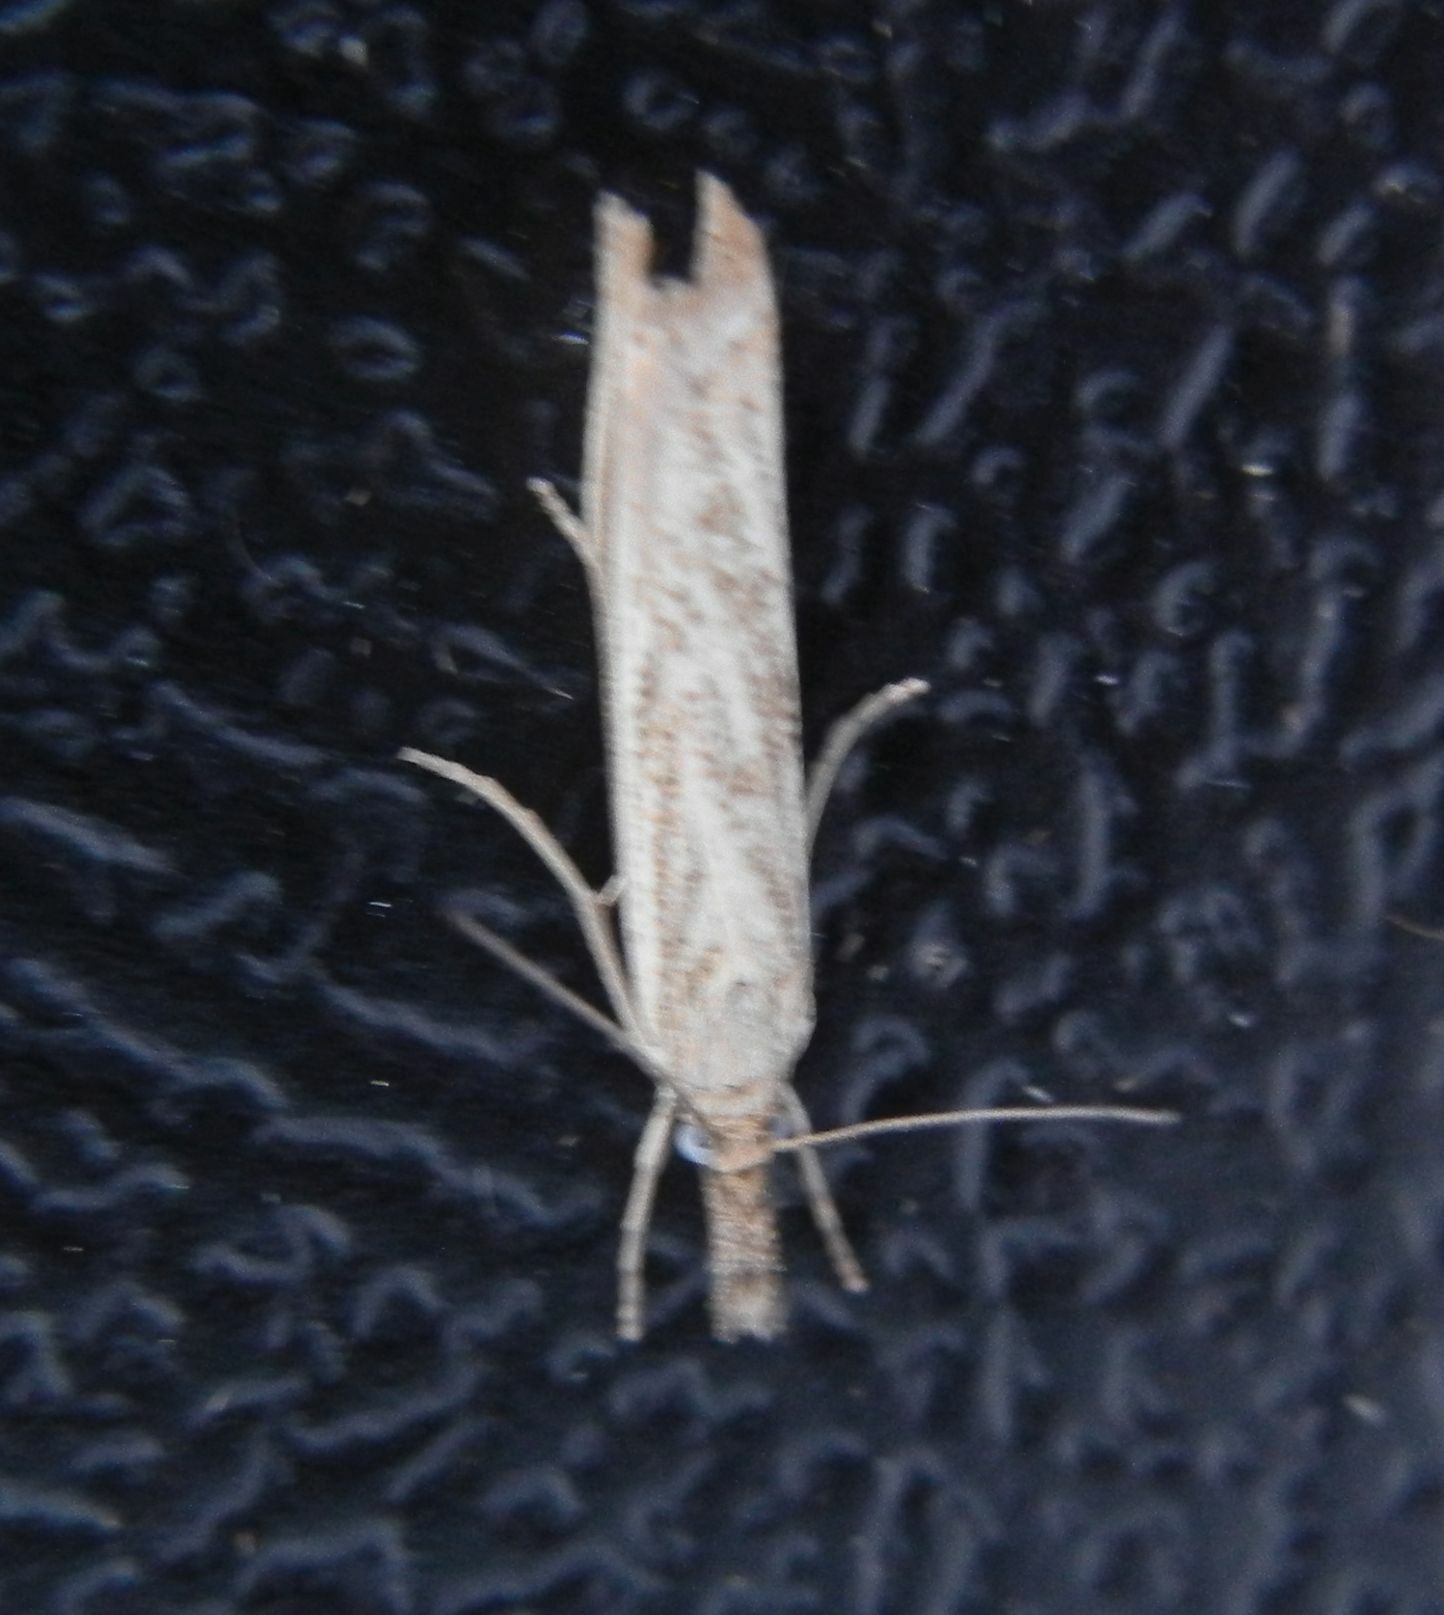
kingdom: Animalia
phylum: Arthropoda
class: Insecta
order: Lepidoptera
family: Crambidae
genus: Agriphila
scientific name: Agriphila inquinatella
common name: Barred grass-veneer
